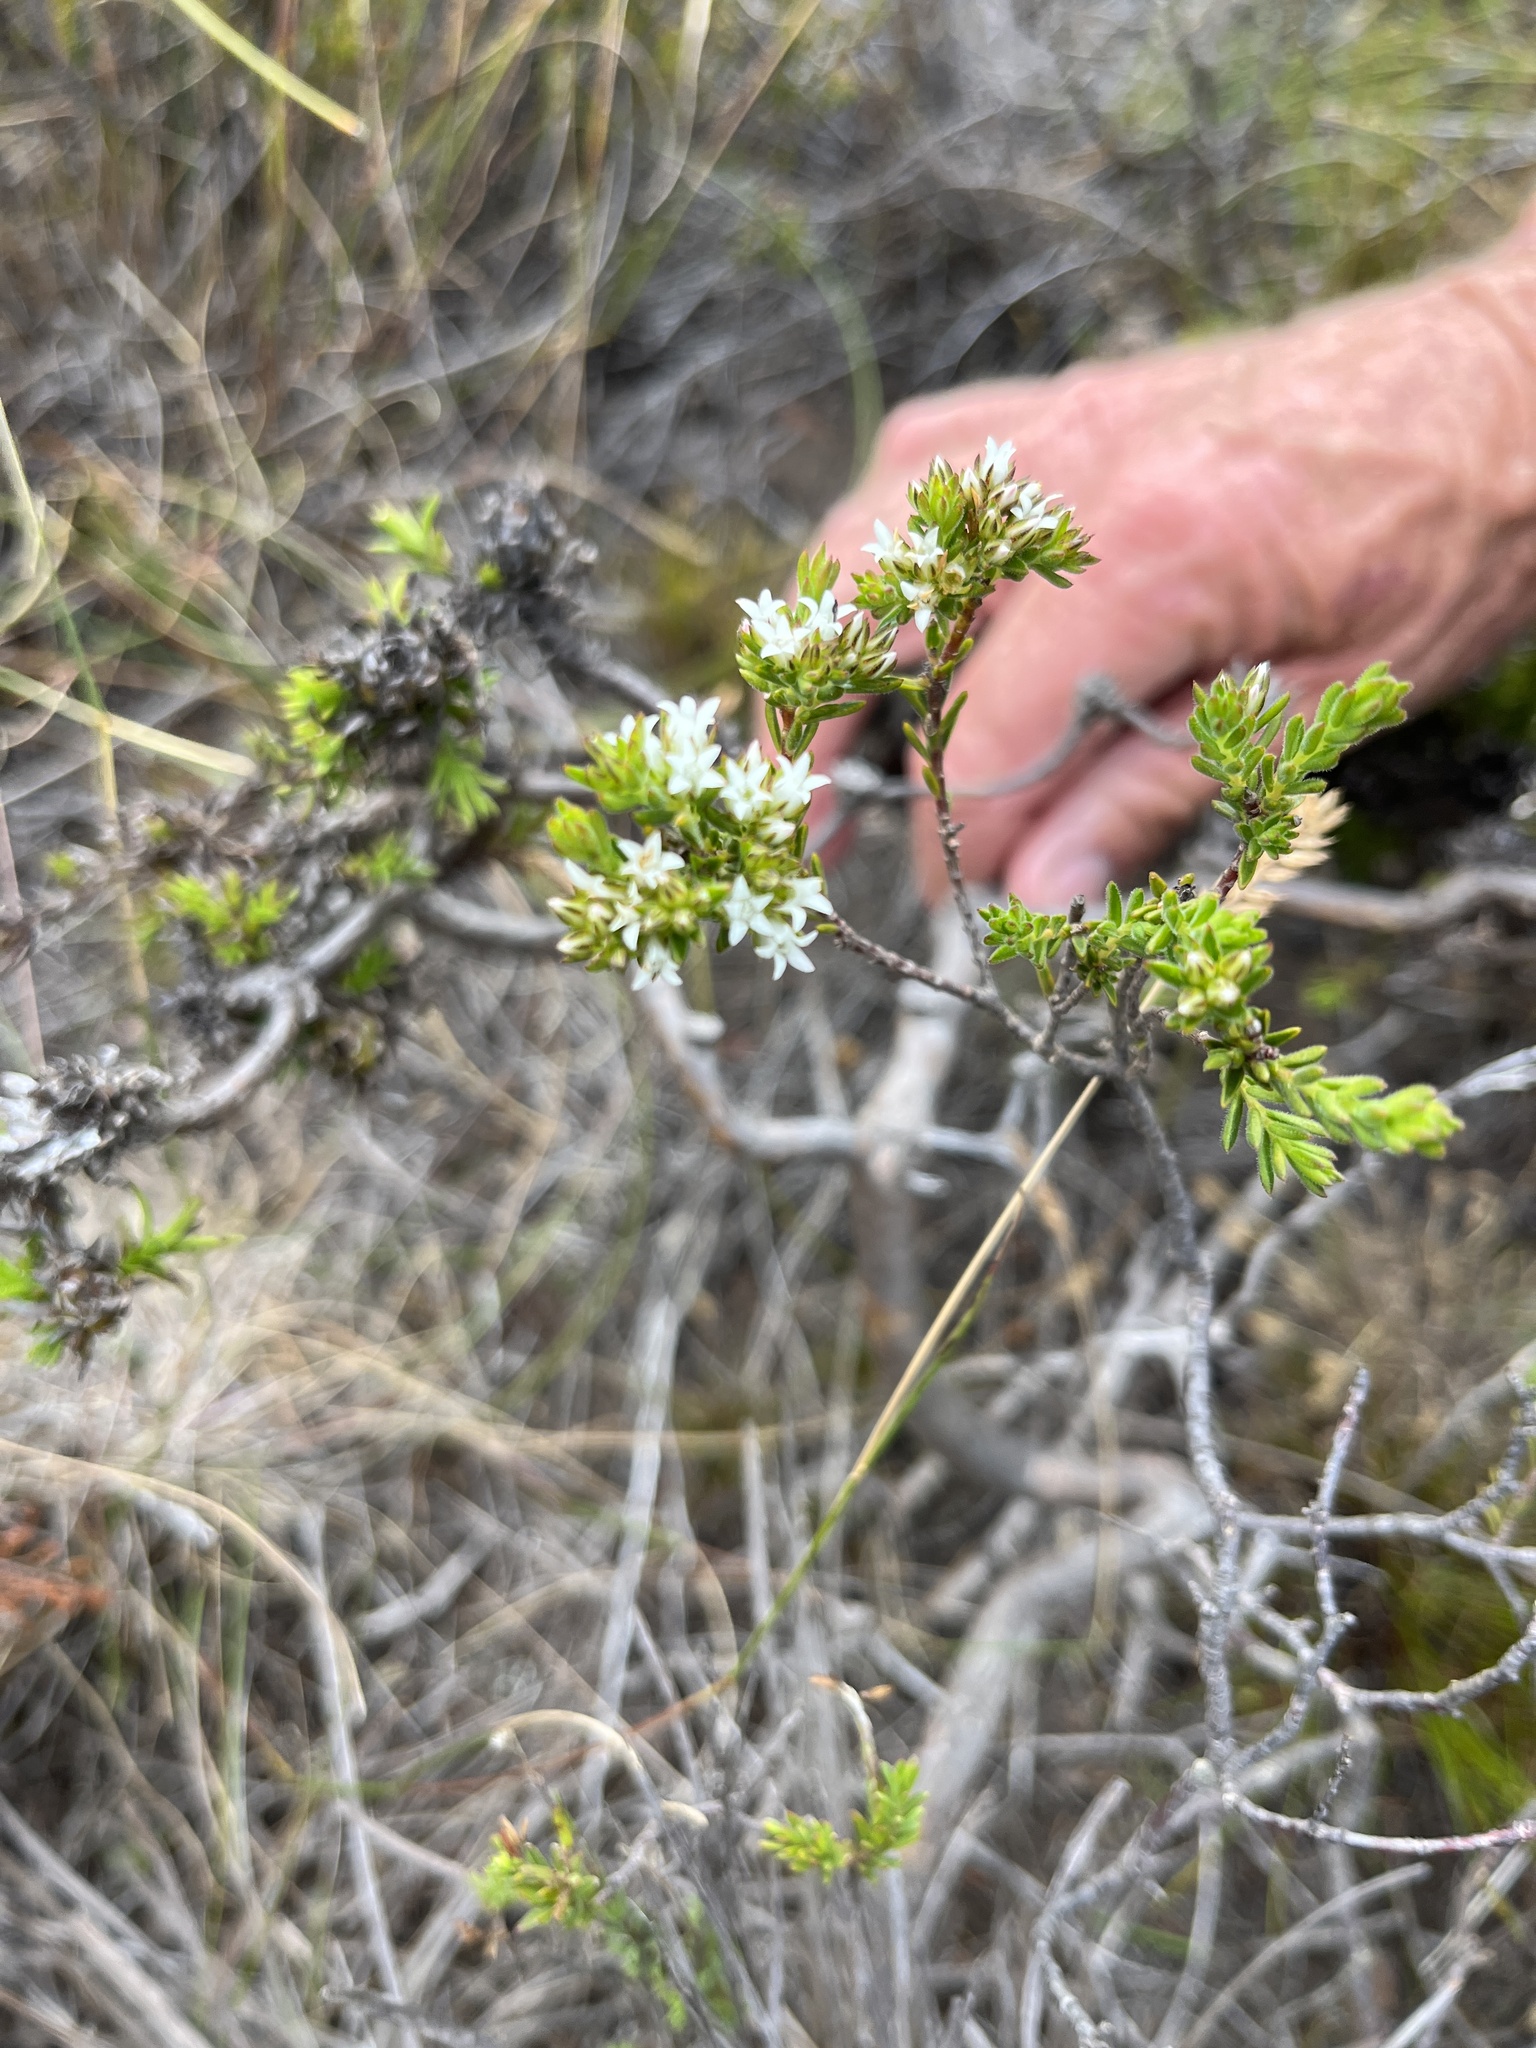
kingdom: Plantae
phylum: Tracheophyta
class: Magnoliopsida
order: Sapindales
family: Rutaceae
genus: Euchaetis
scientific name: Euchaetis schlechteri
